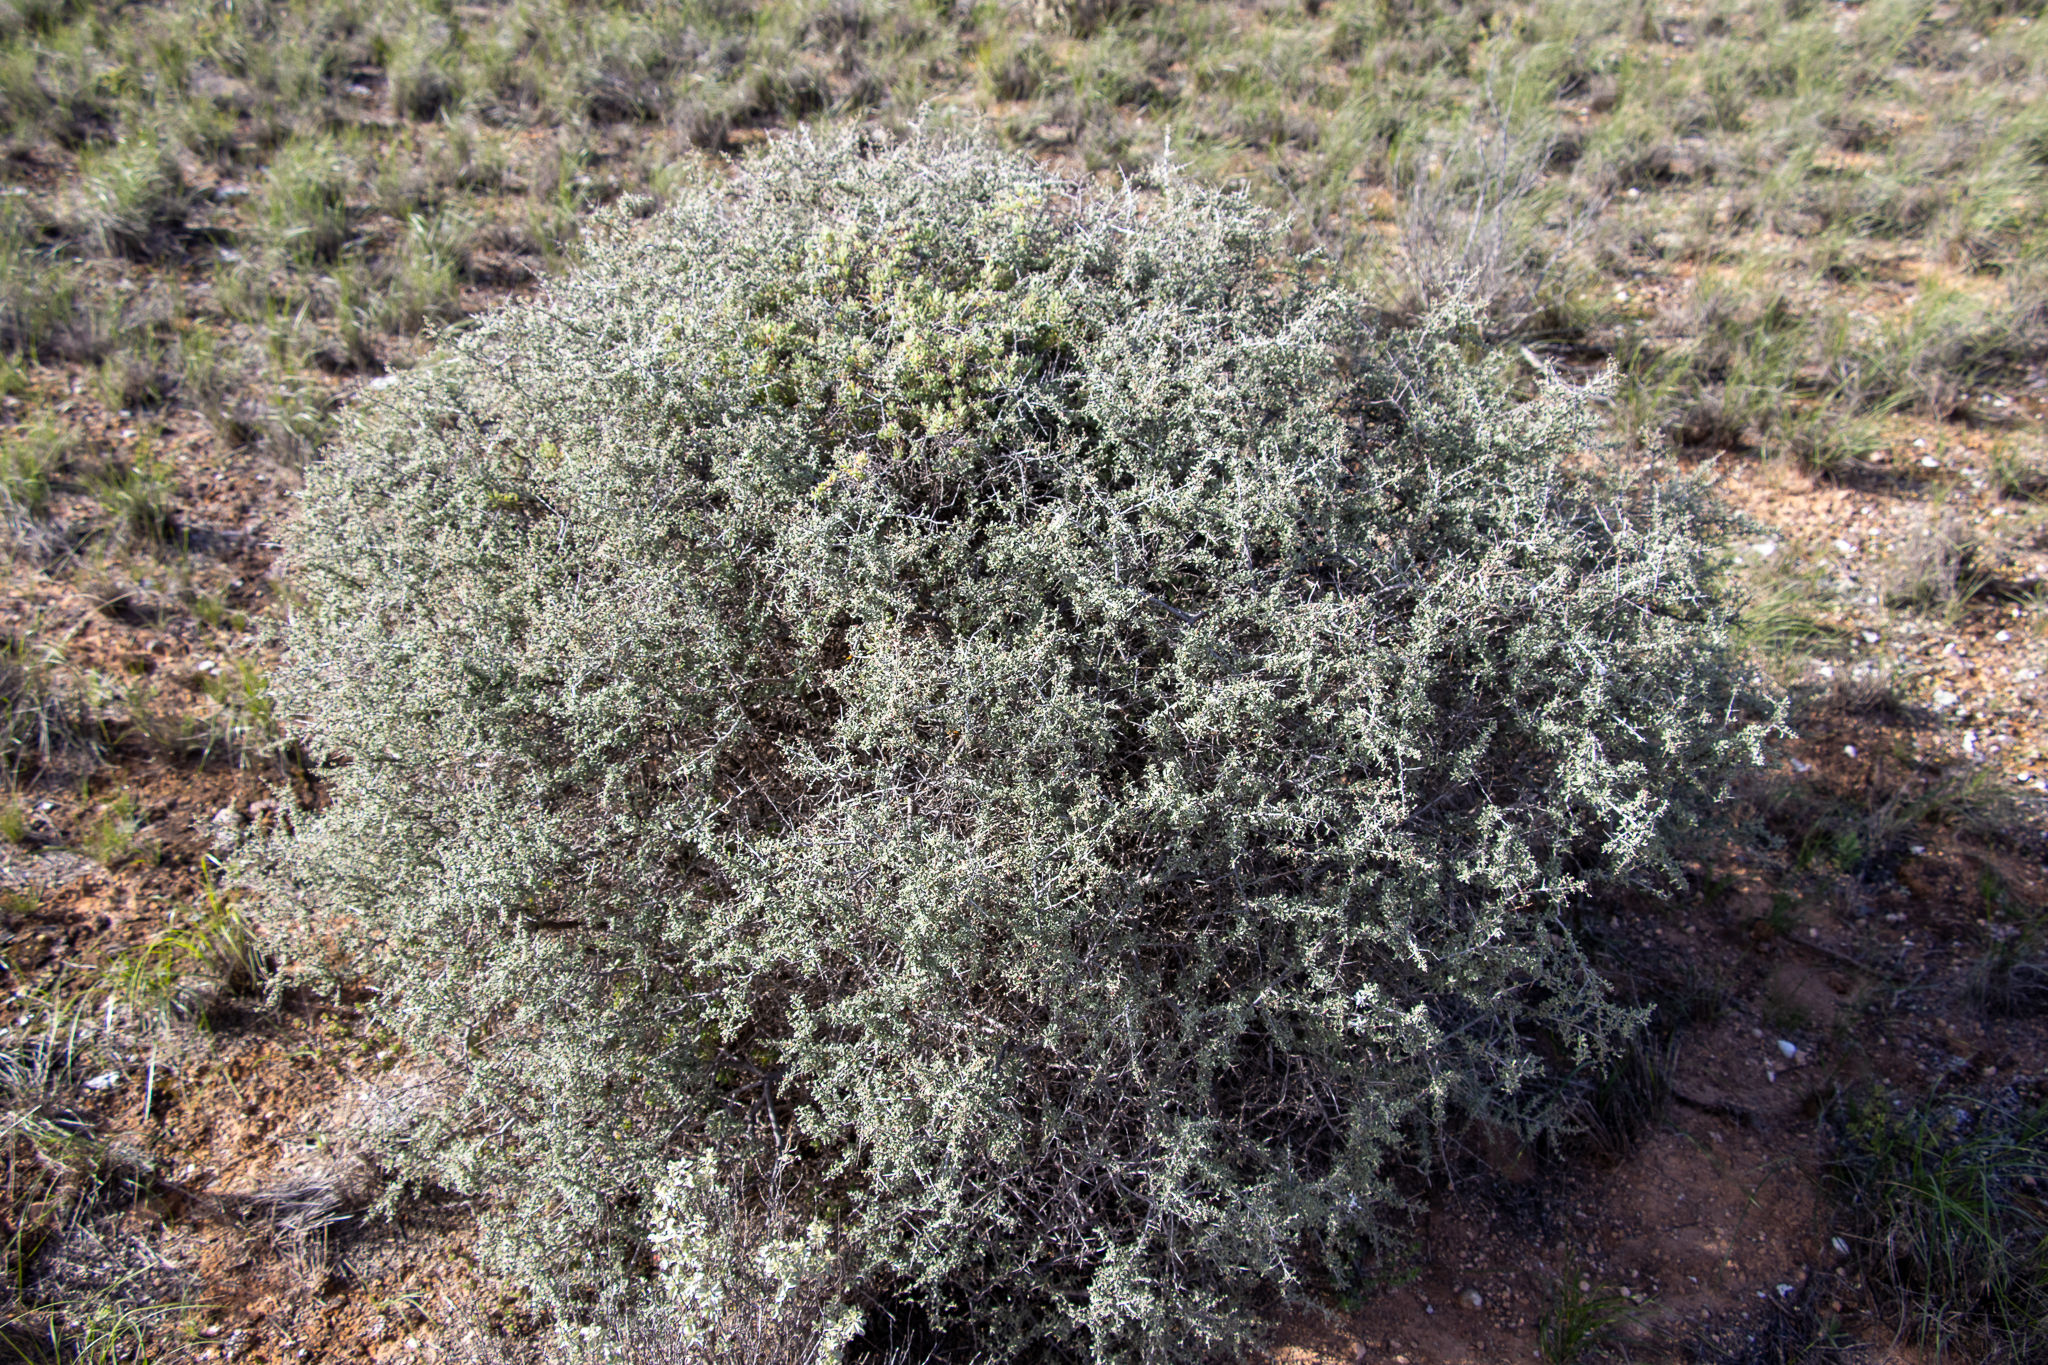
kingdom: Plantae
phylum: Tracheophyta
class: Magnoliopsida
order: Malvales
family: Malvaceae
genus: Lawrencia
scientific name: Lawrencia squamata
